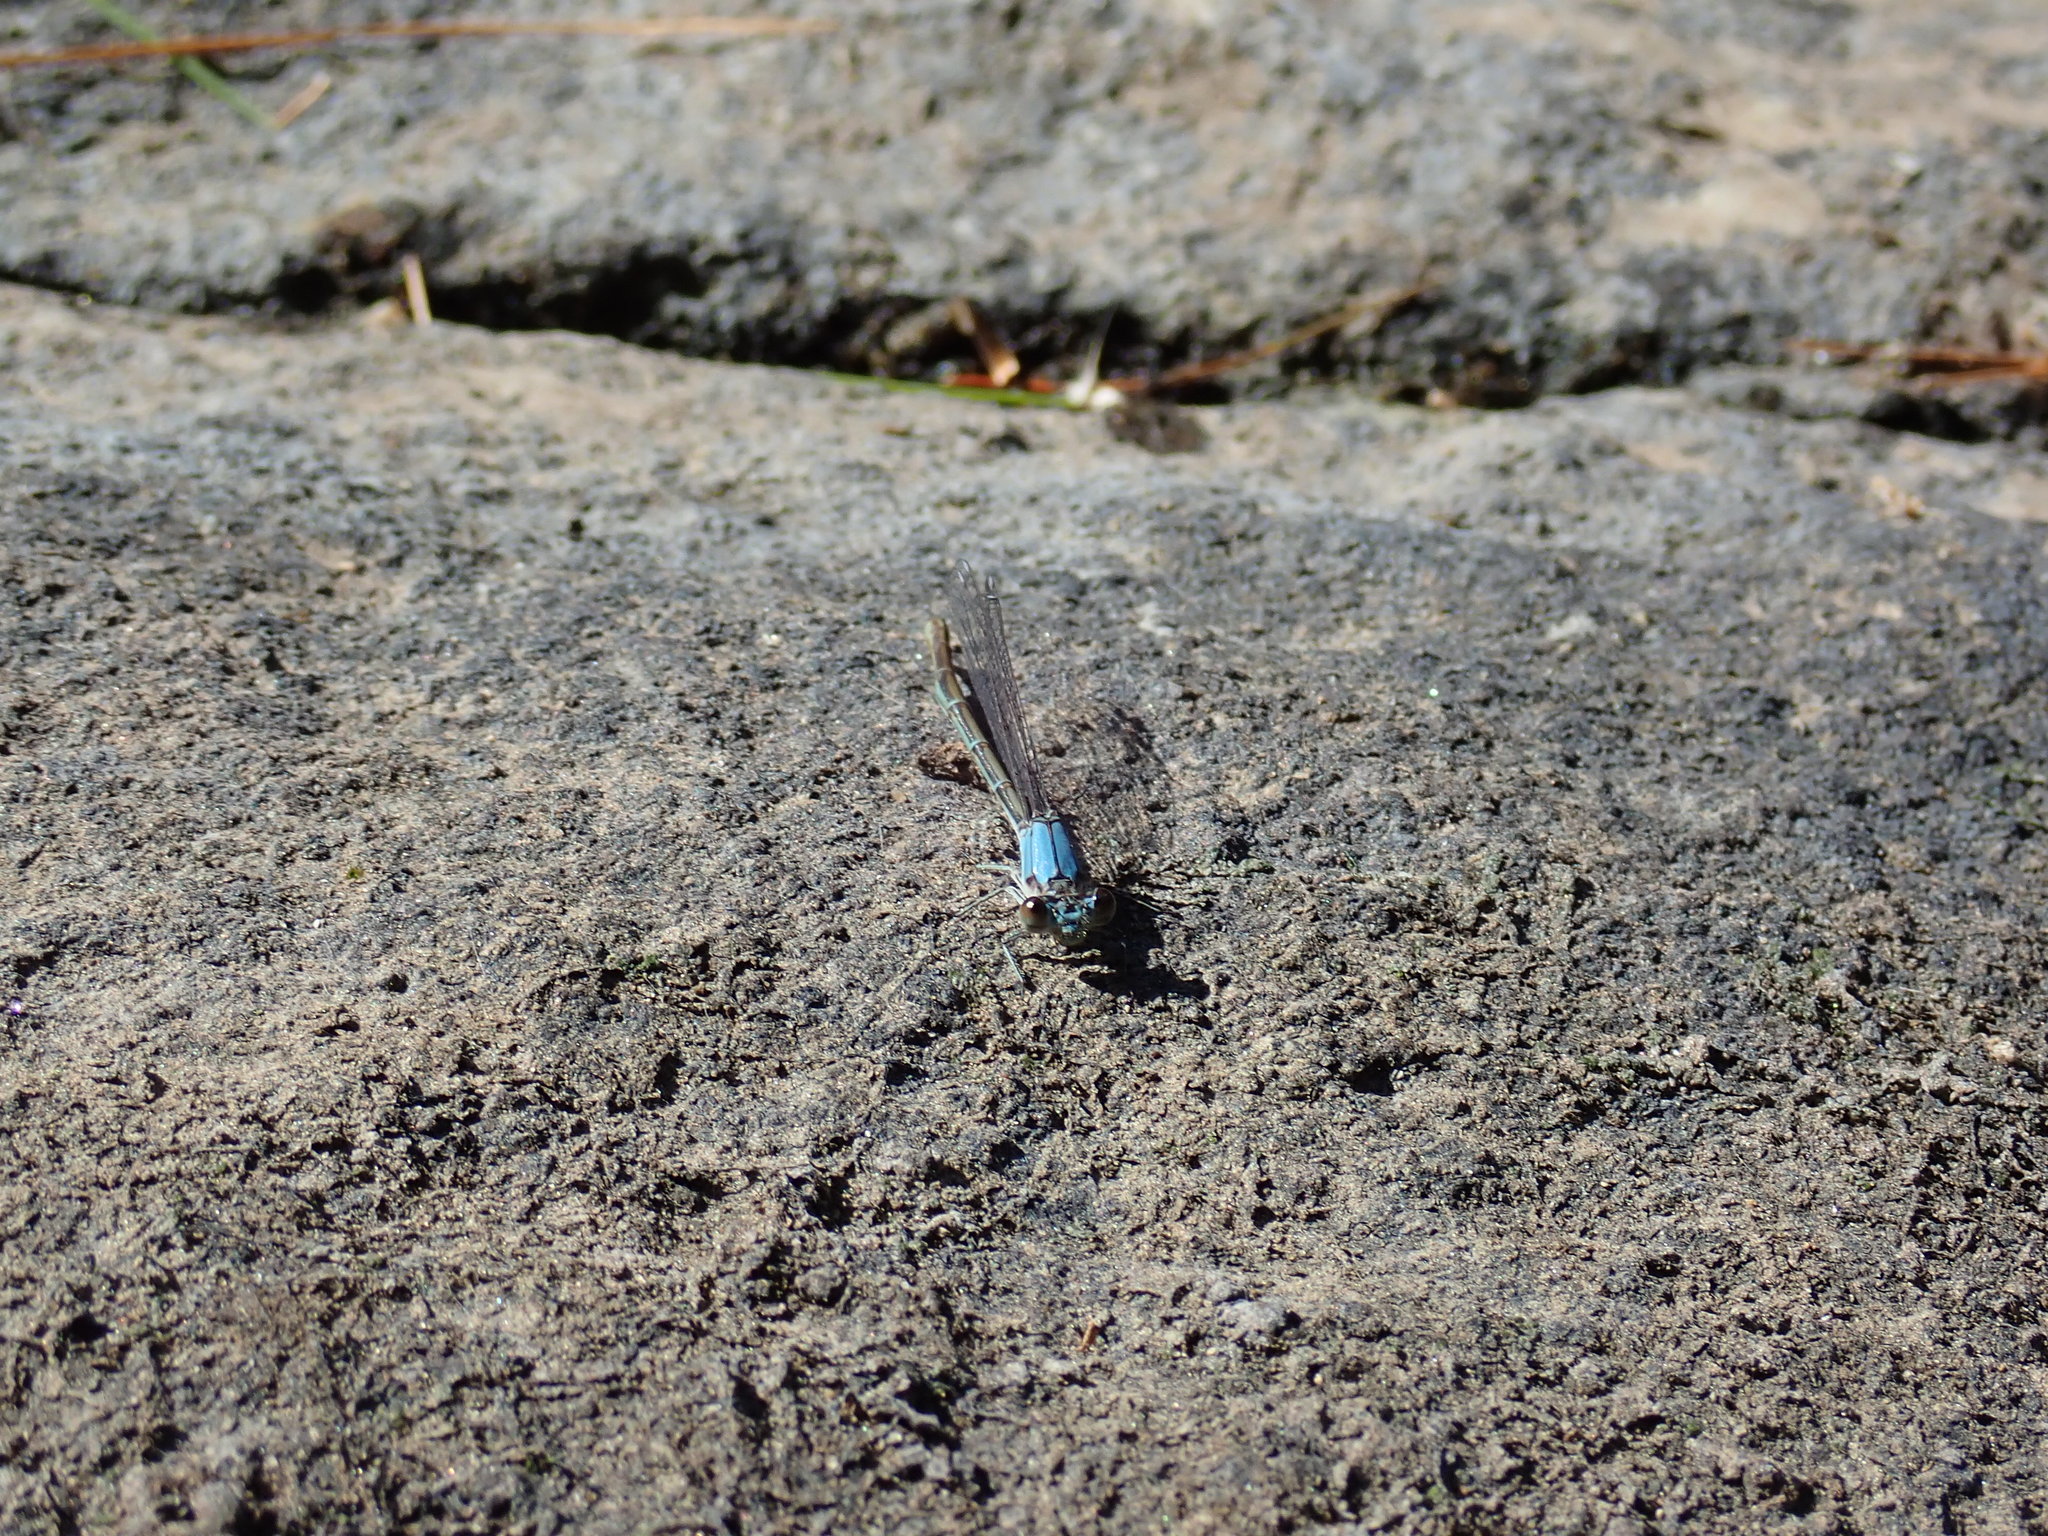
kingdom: Animalia
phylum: Arthropoda
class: Insecta
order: Odonata
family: Coenagrionidae
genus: Argia
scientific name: Argia moesta
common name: Powdered dancer
